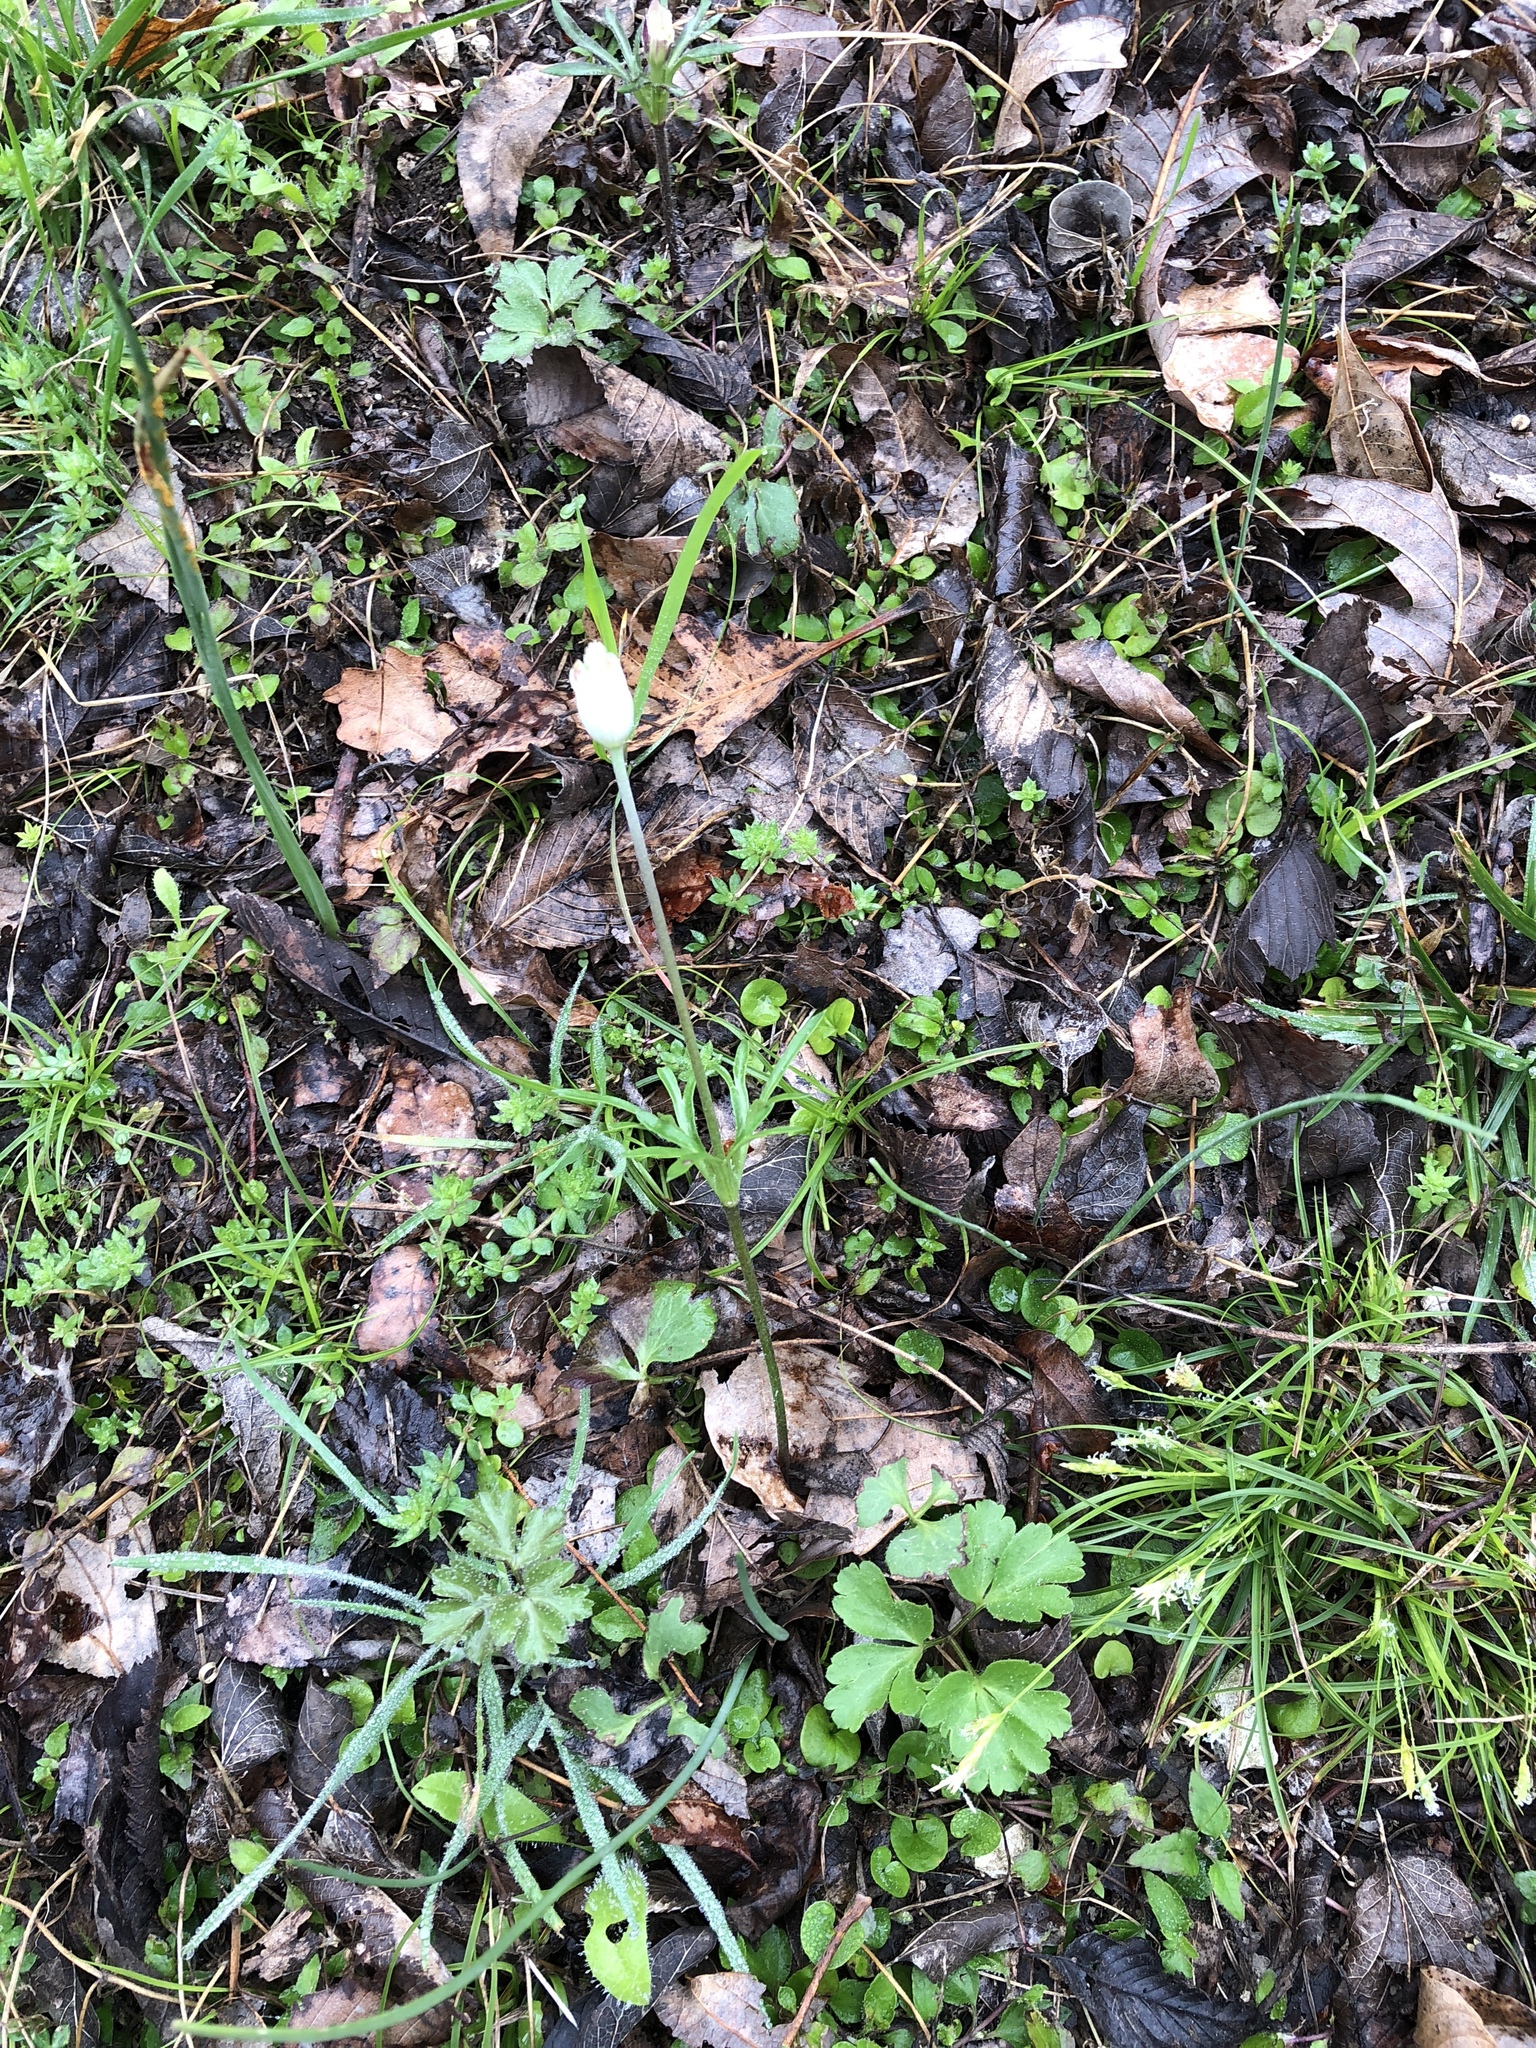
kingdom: Plantae
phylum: Tracheophyta
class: Magnoliopsida
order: Ranunculales
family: Ranunculaceae
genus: Anemone
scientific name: Anemone berlandieri
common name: Ten-petal anemone
